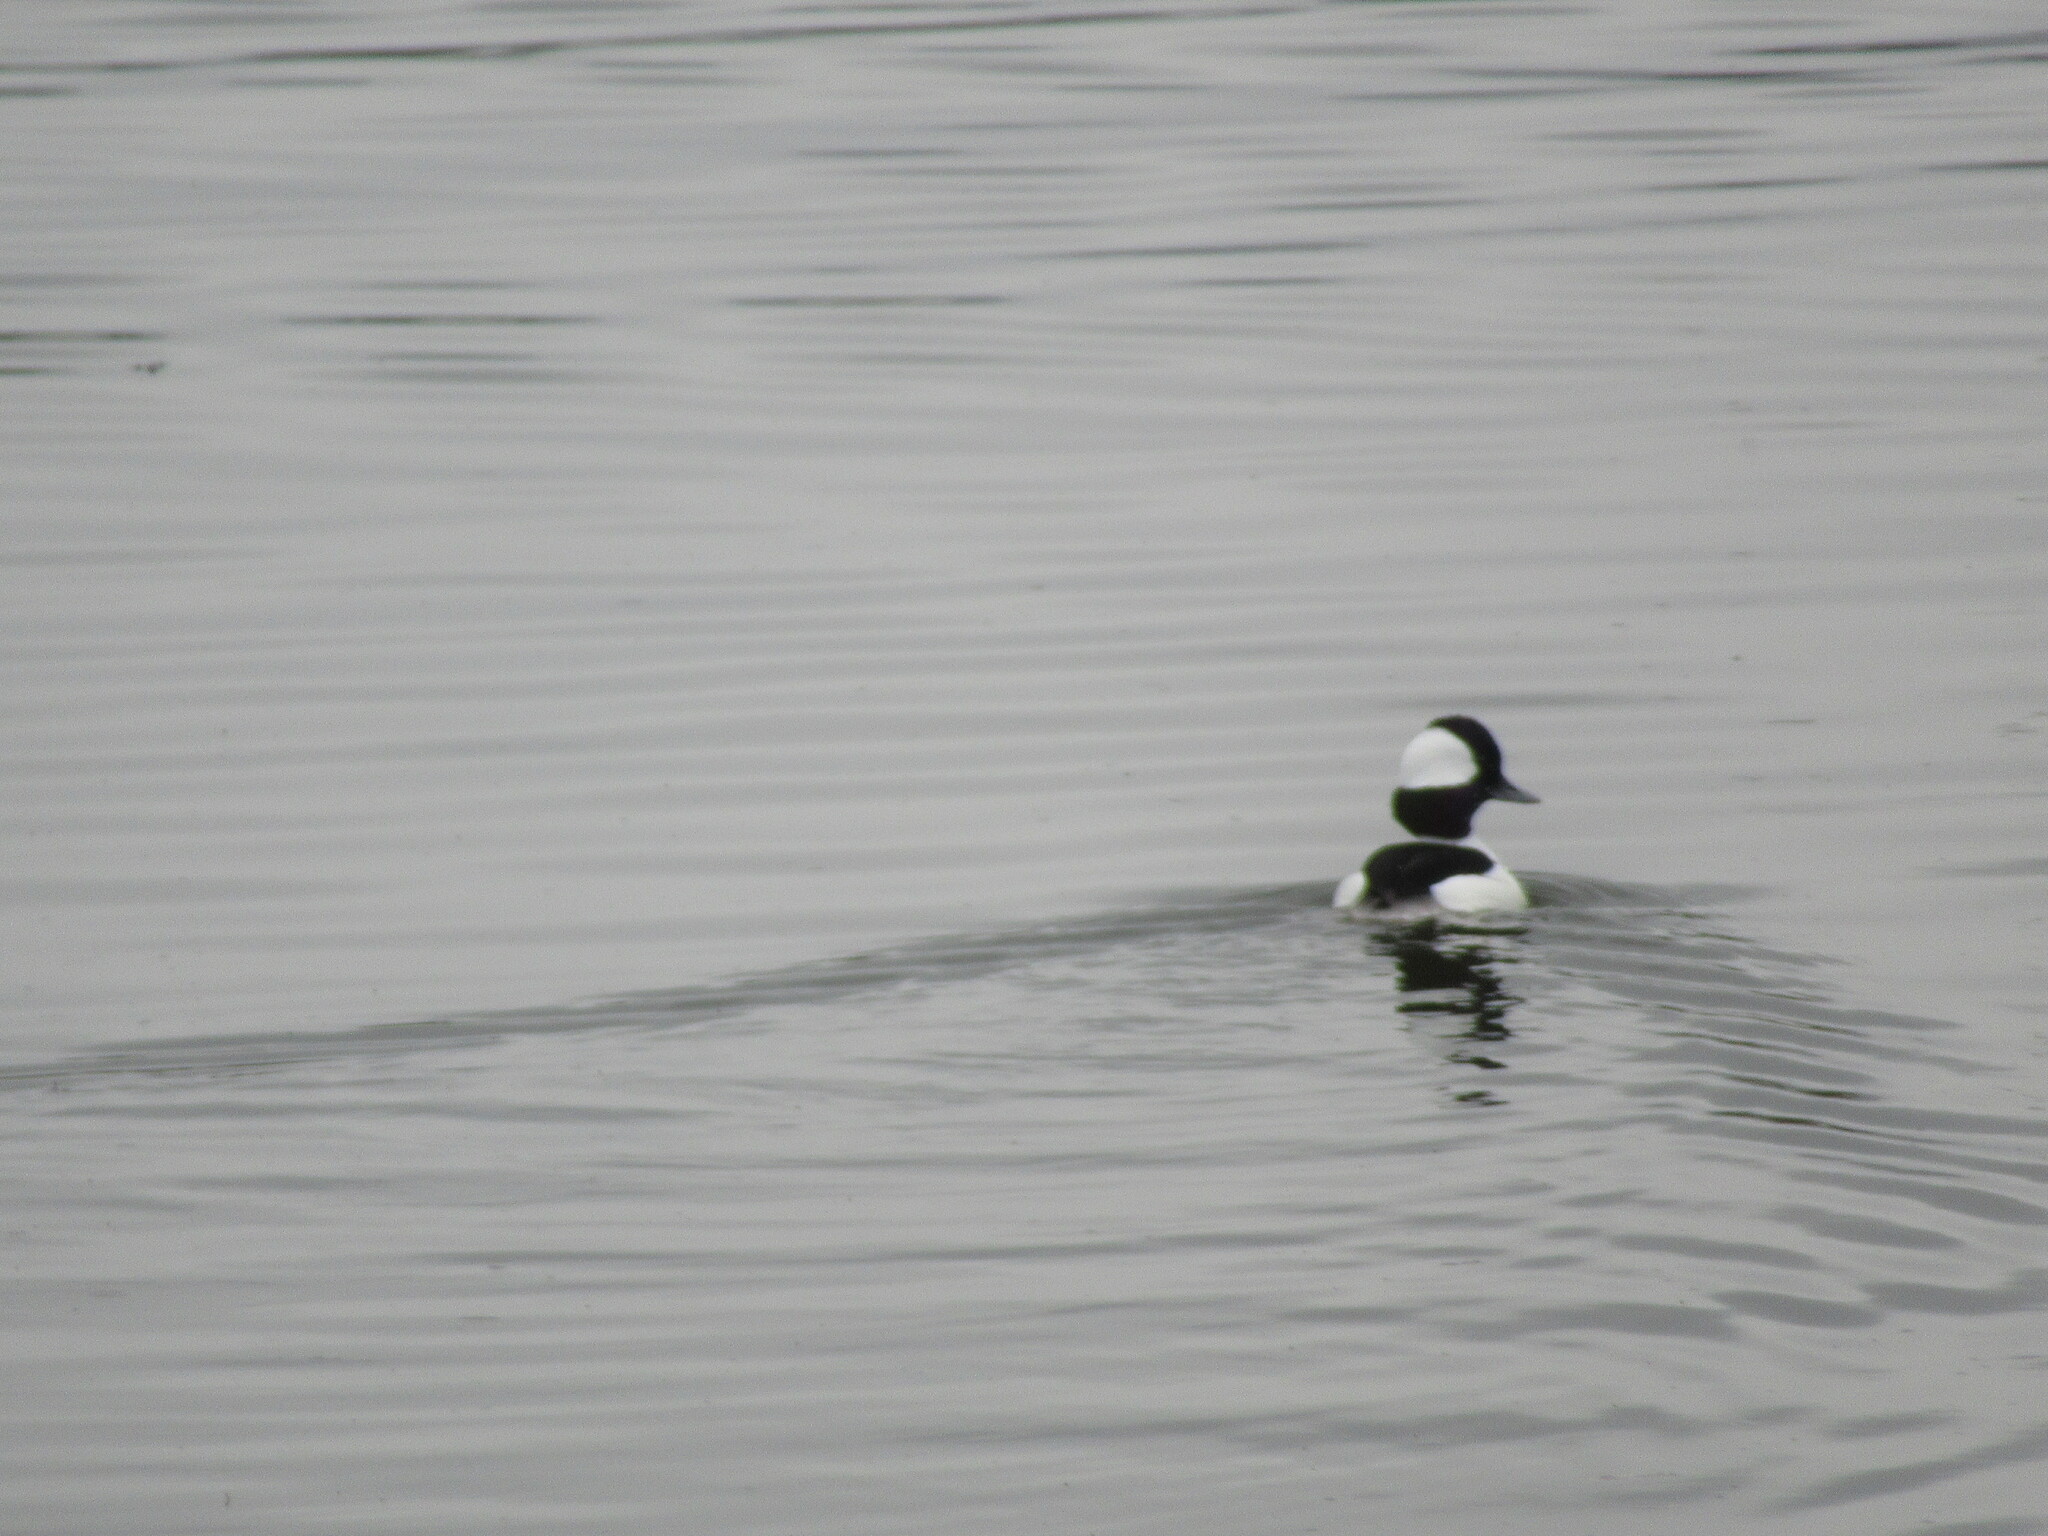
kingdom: Animalia
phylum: Chordata
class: Aves
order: Anseriformes
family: Anatidae
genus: Bucephala
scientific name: Bucephala albeola
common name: Bufflehead
